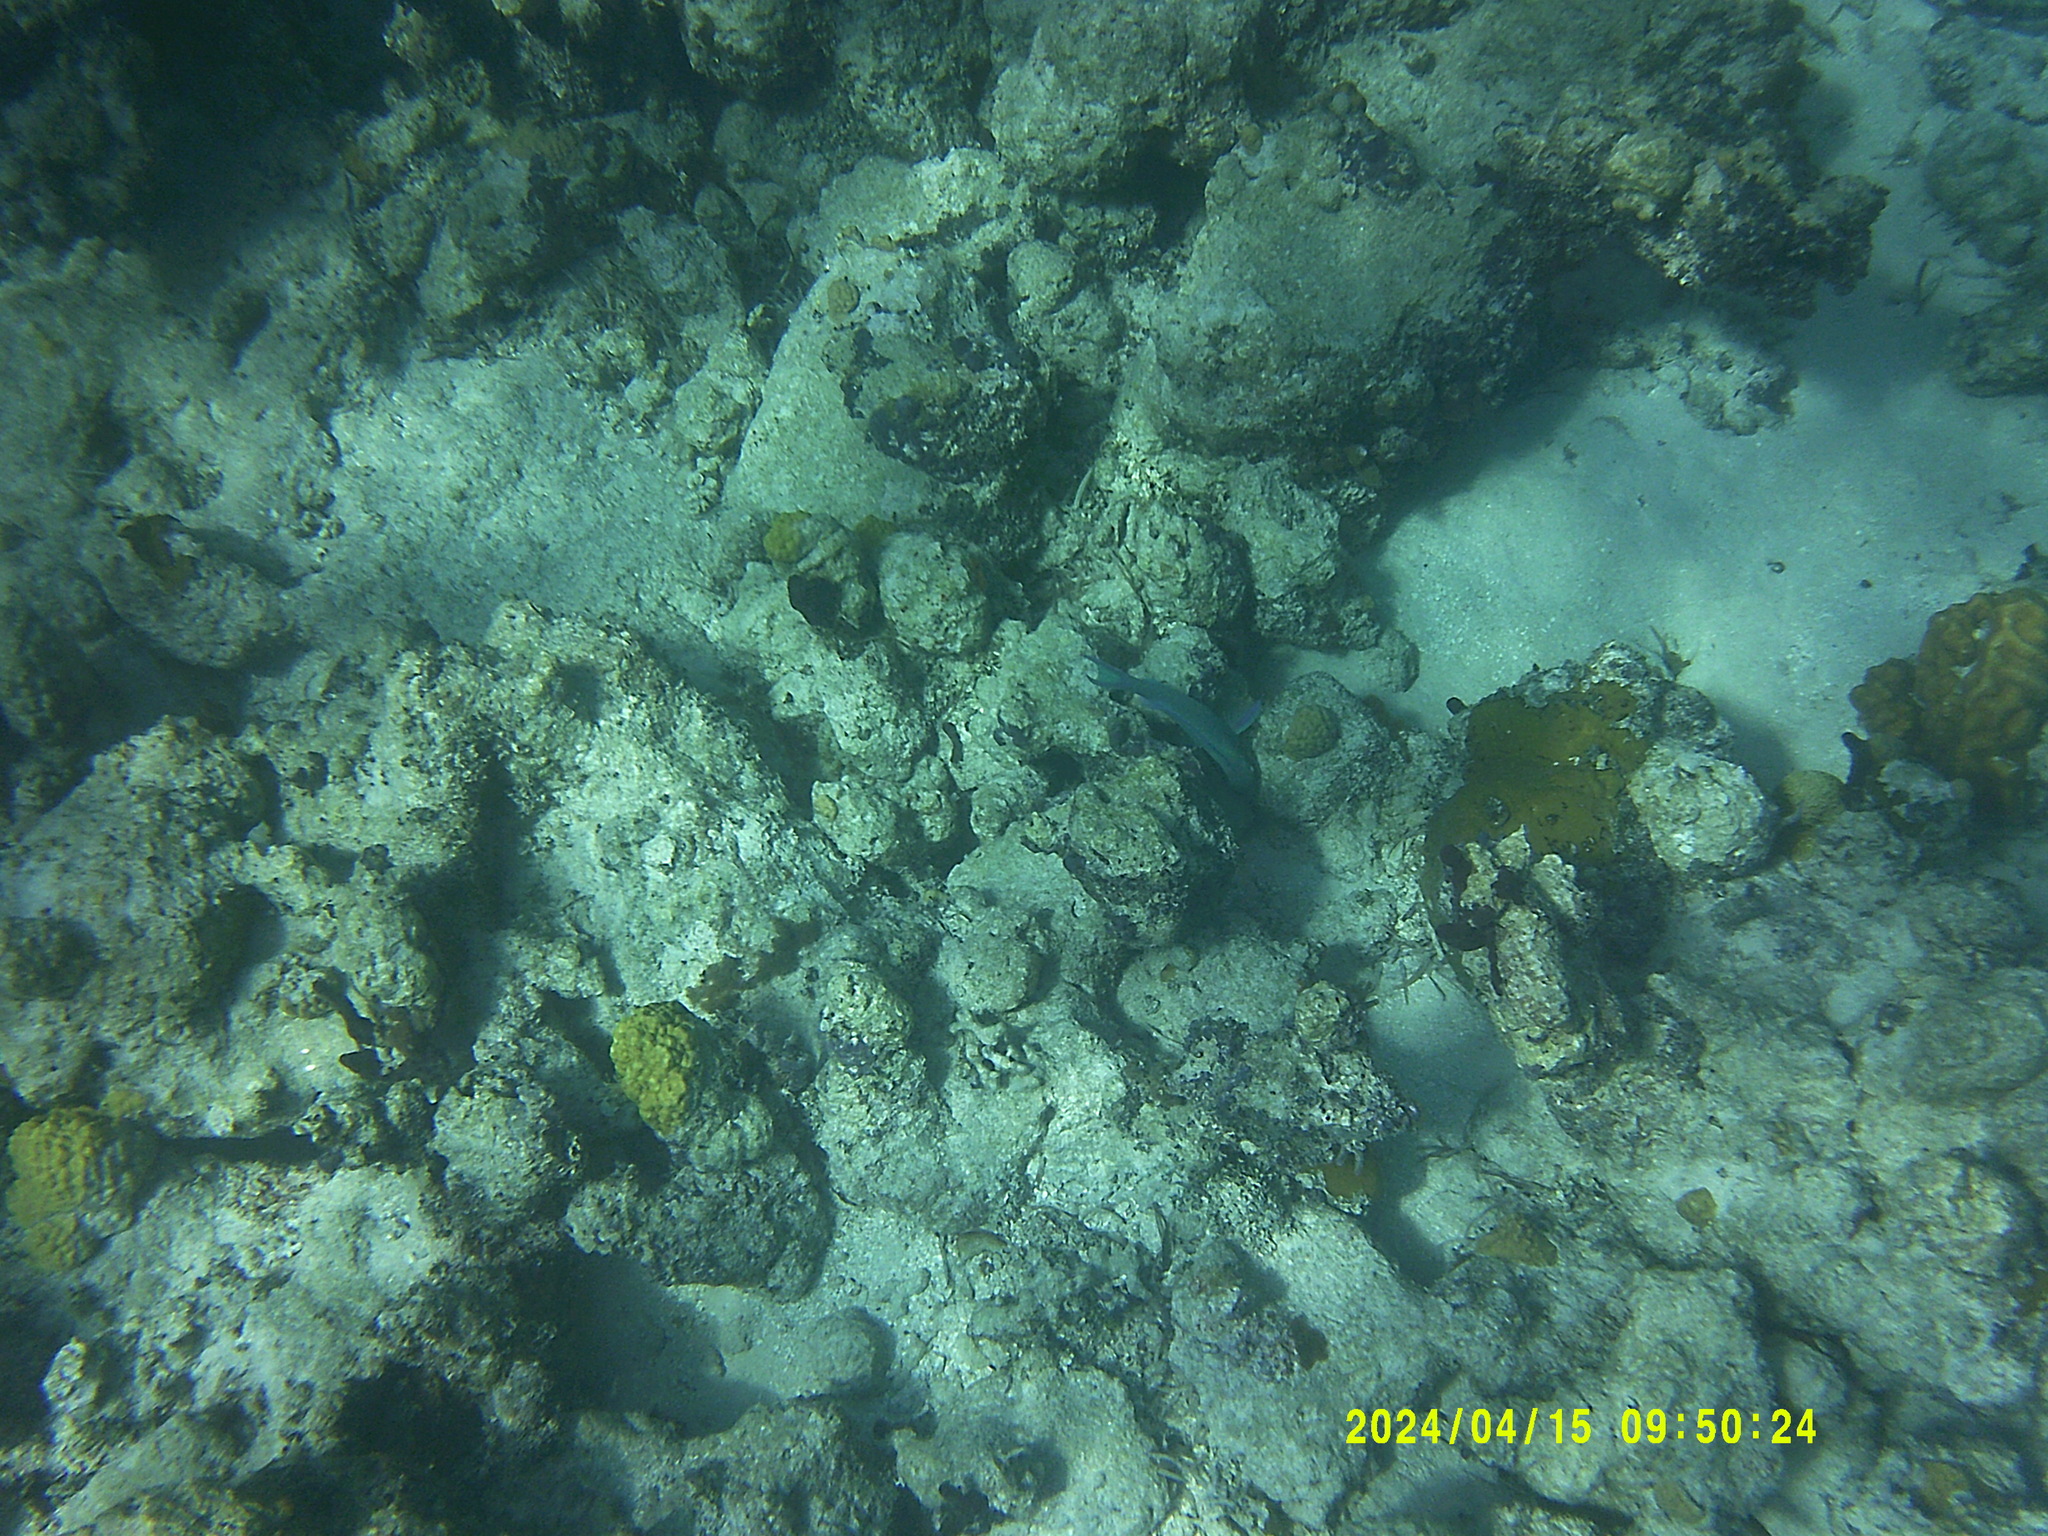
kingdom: Animalia
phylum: Chordata
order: Perciformes
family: Scaridae
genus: Scarus
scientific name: Scarus vetula
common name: Queen parrotfish
